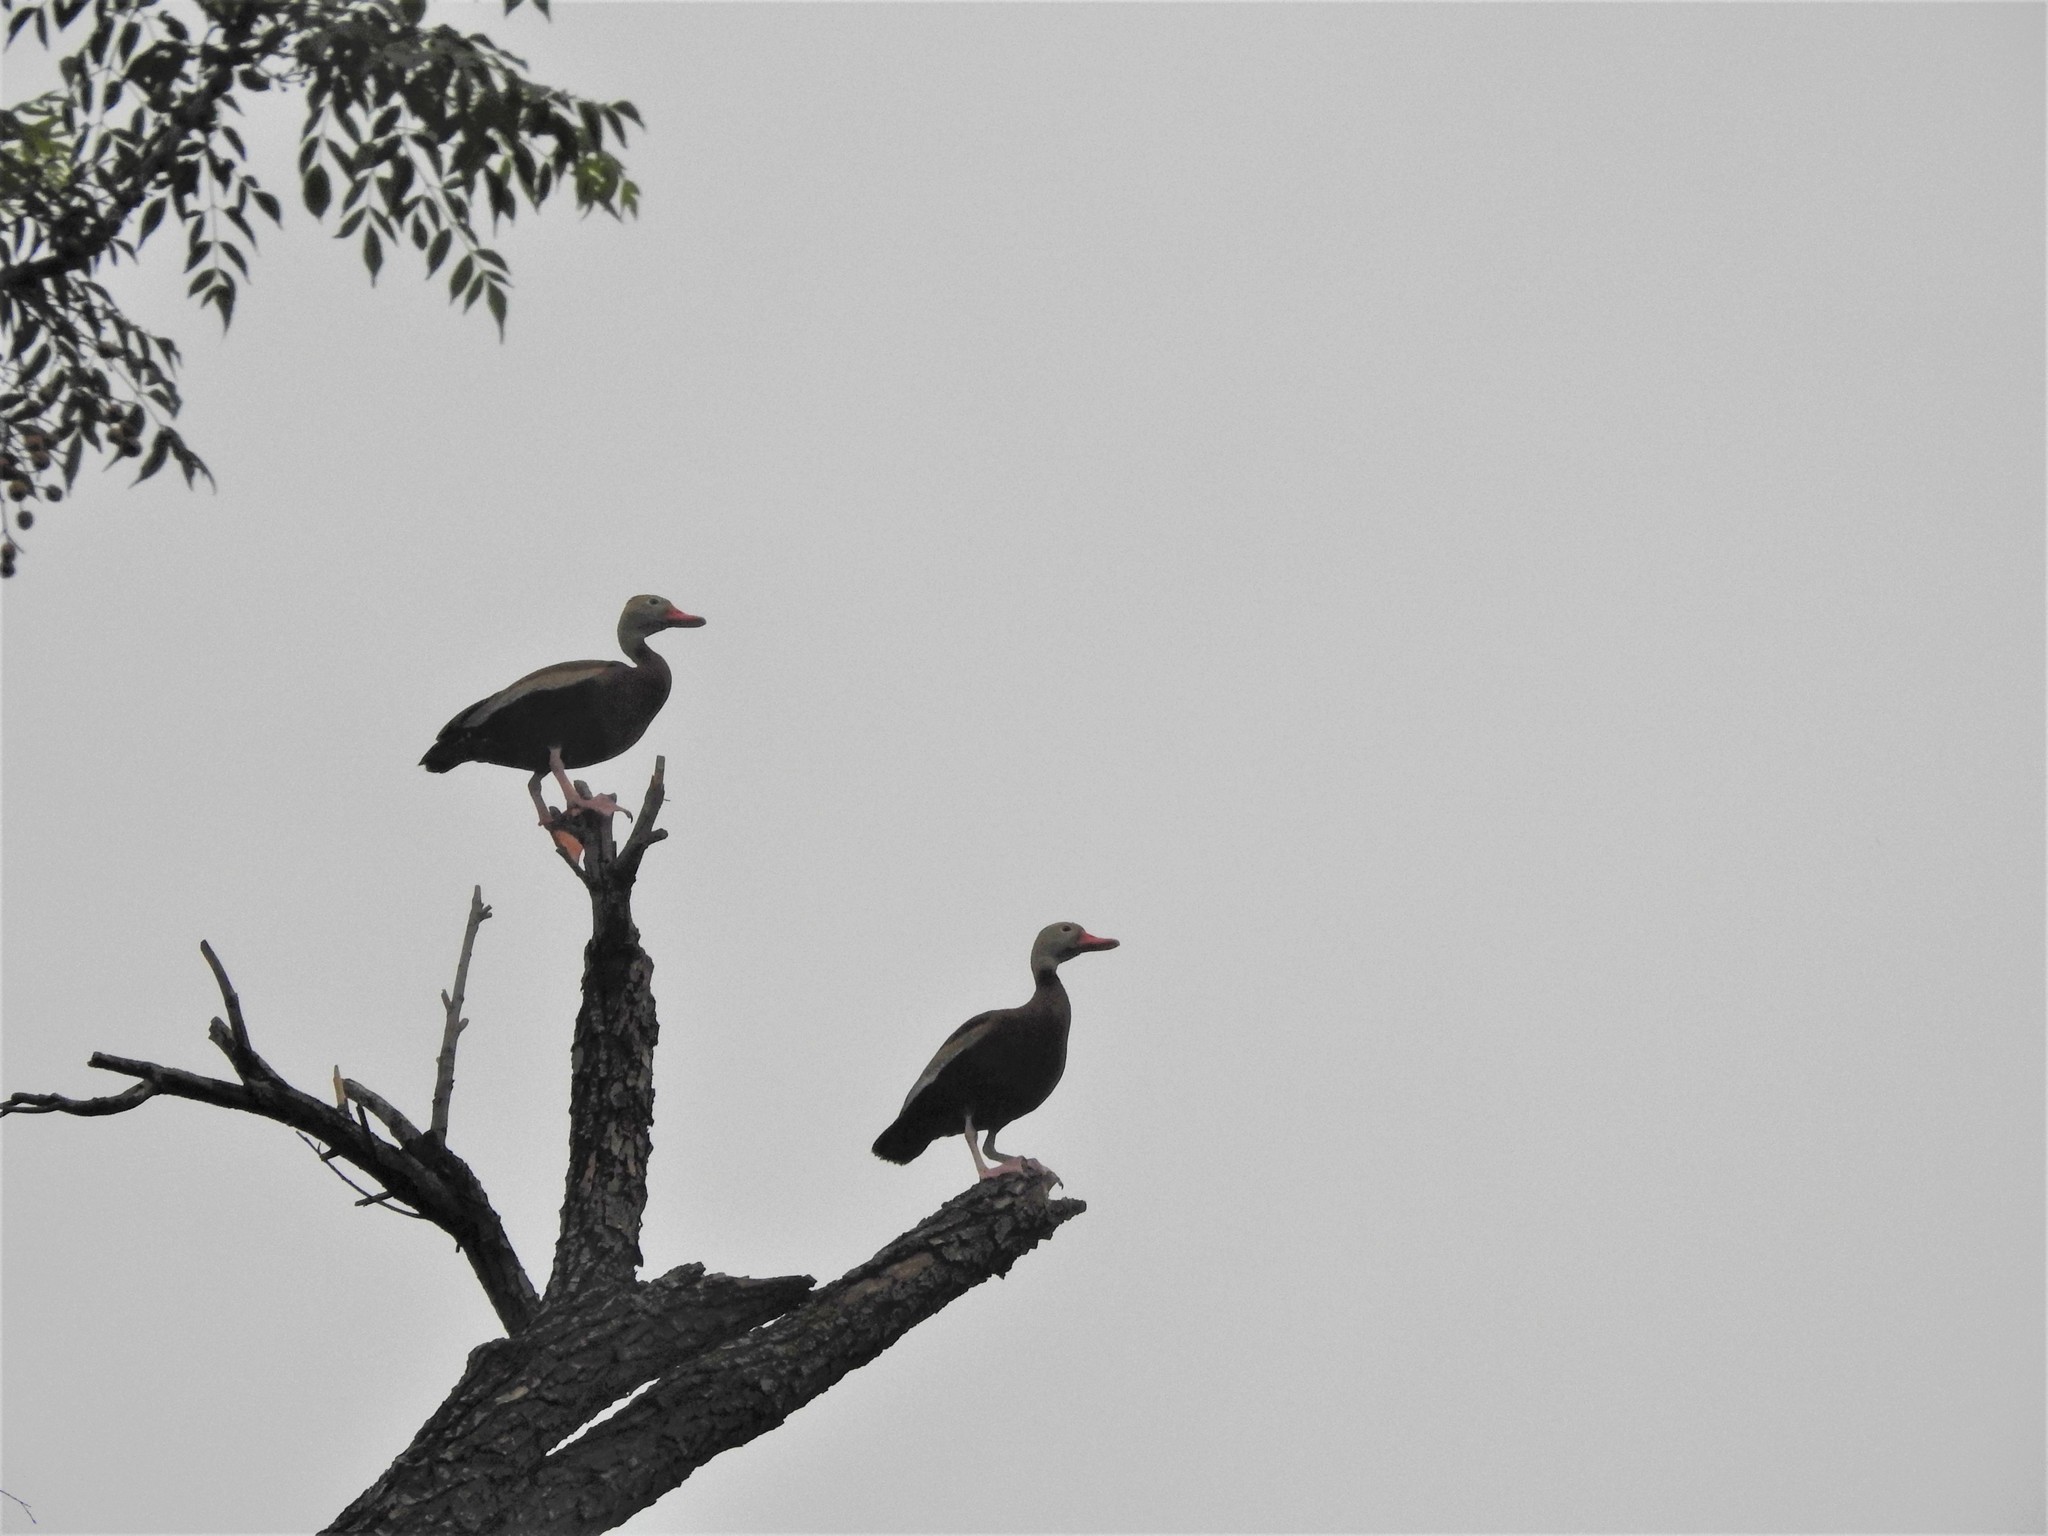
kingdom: Animalia
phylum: Chordata
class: Aves
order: Anseriformes
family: Anatidae
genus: Dendrocygna
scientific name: Dendrocygna autumnalis
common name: Black-bellied whistling duck
